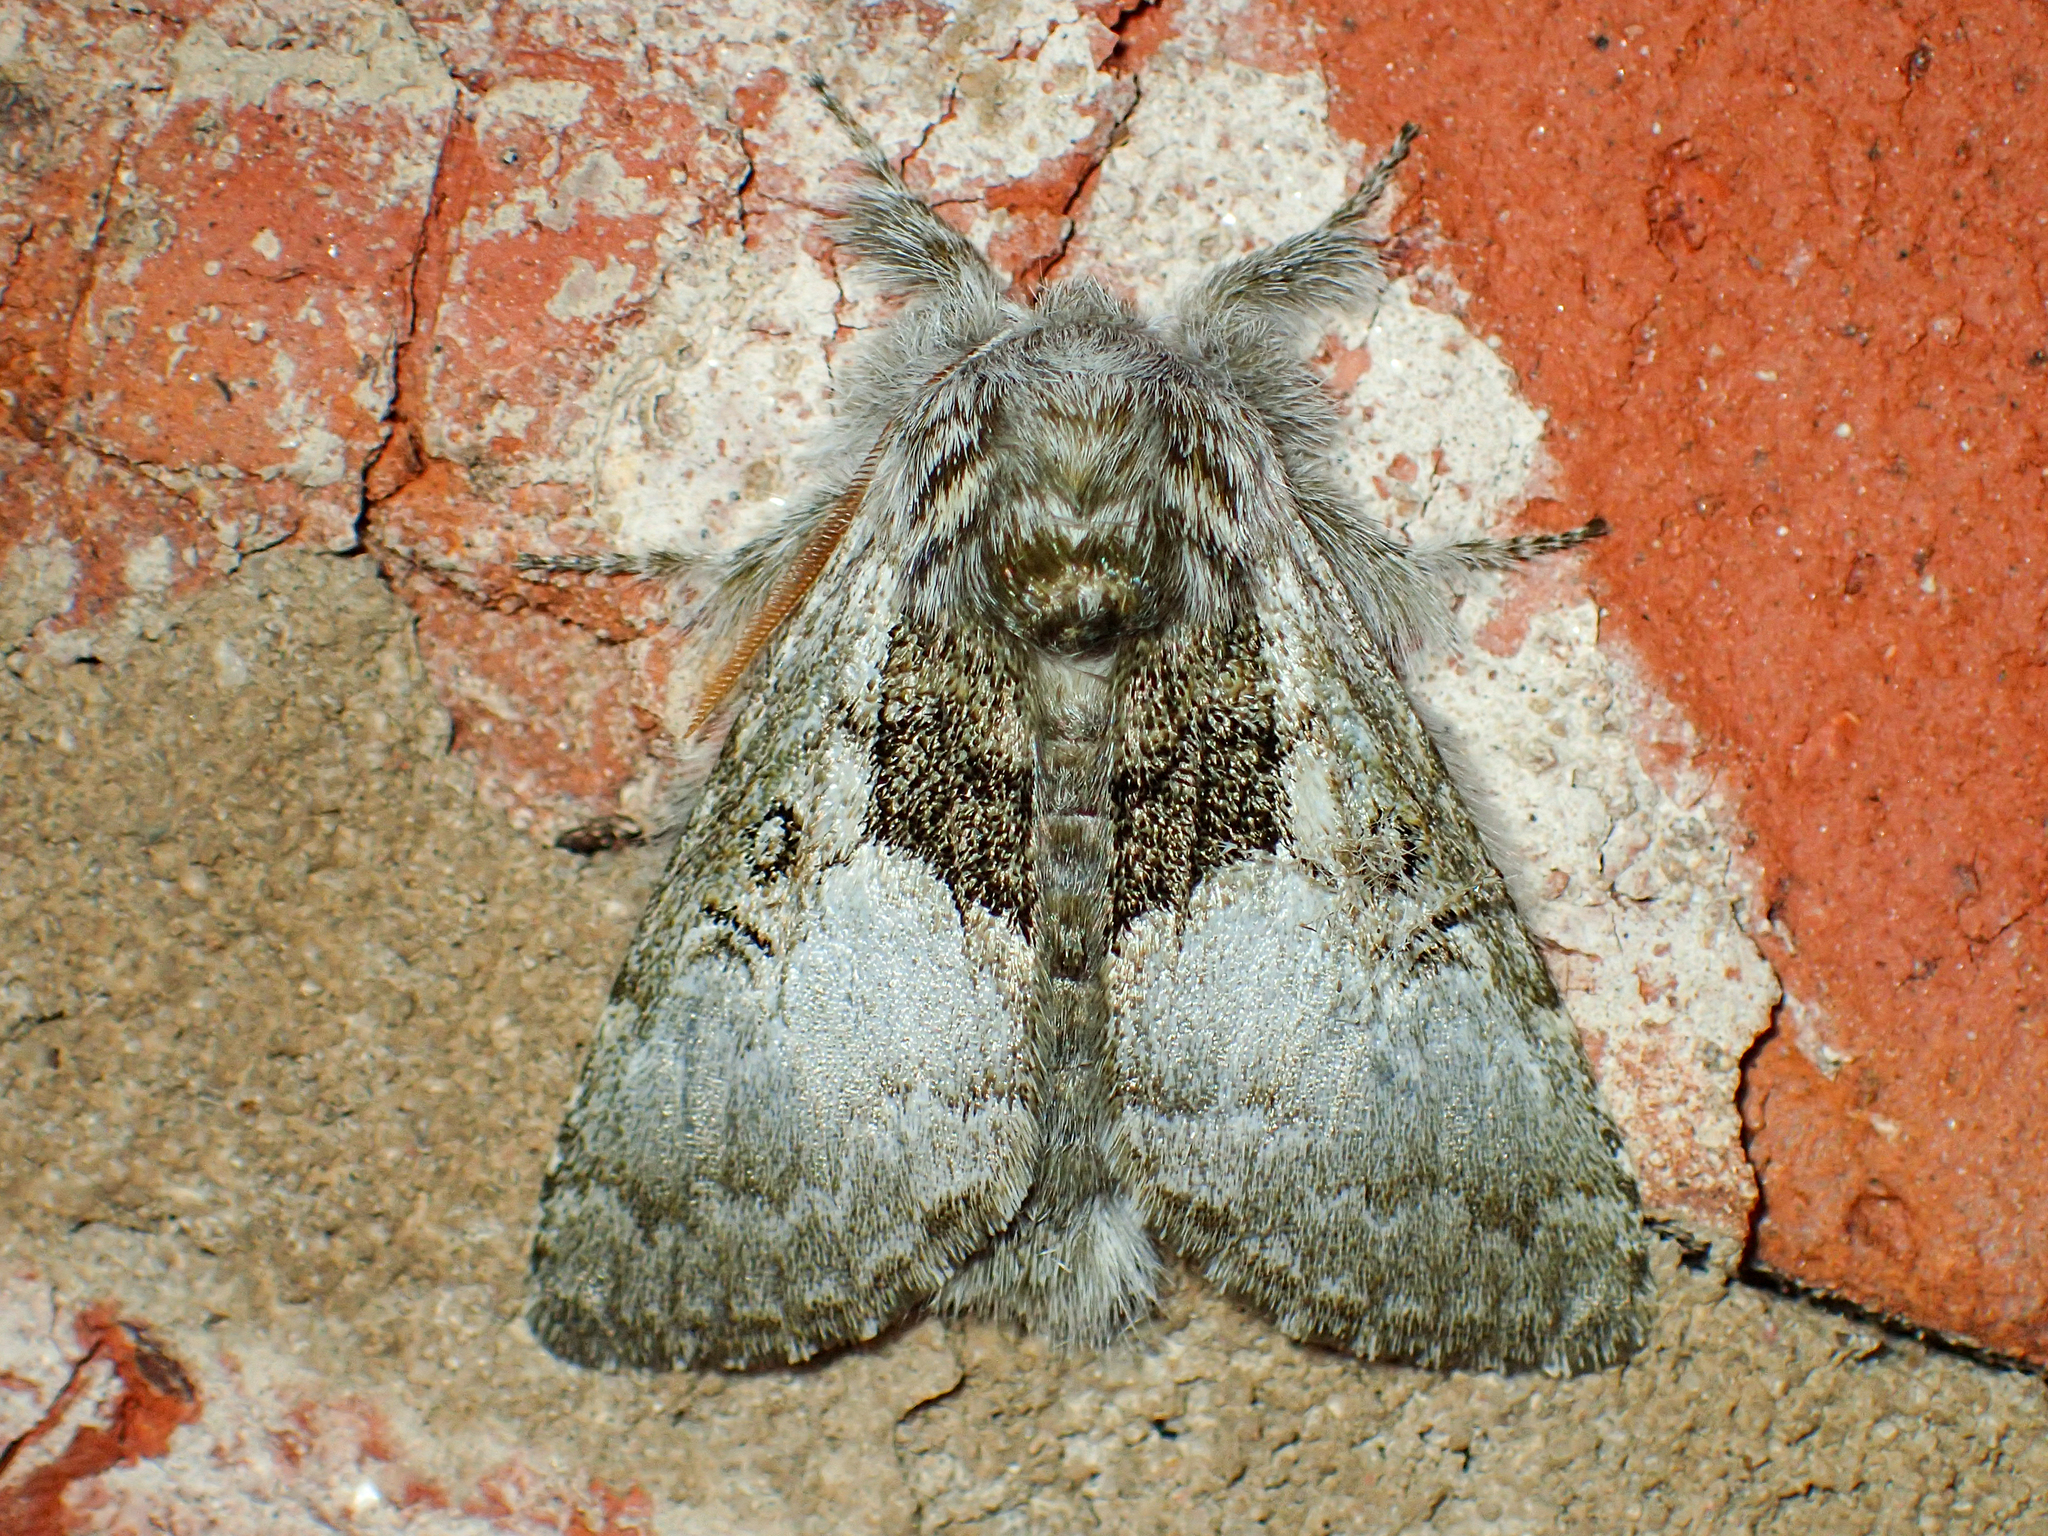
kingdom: Animalia
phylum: Arthropoda
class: Insecta
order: Lepidoptera
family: Noctuidae
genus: Colocasia
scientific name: Colocasia flavicornis
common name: Saddled yellowhorn
